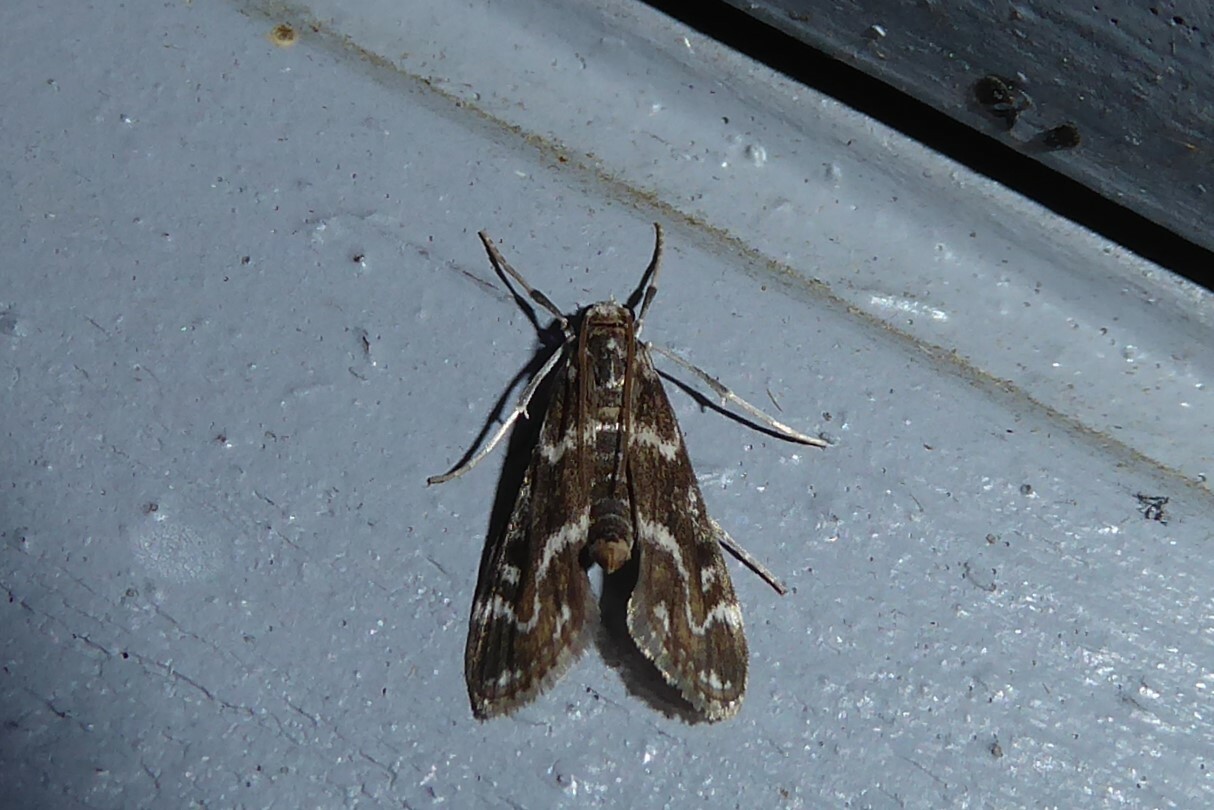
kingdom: Animalia
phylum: Arthropoda
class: Insecta
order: Lepidoptera
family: Crambidae
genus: Hygraula
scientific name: Hygraula nitens
